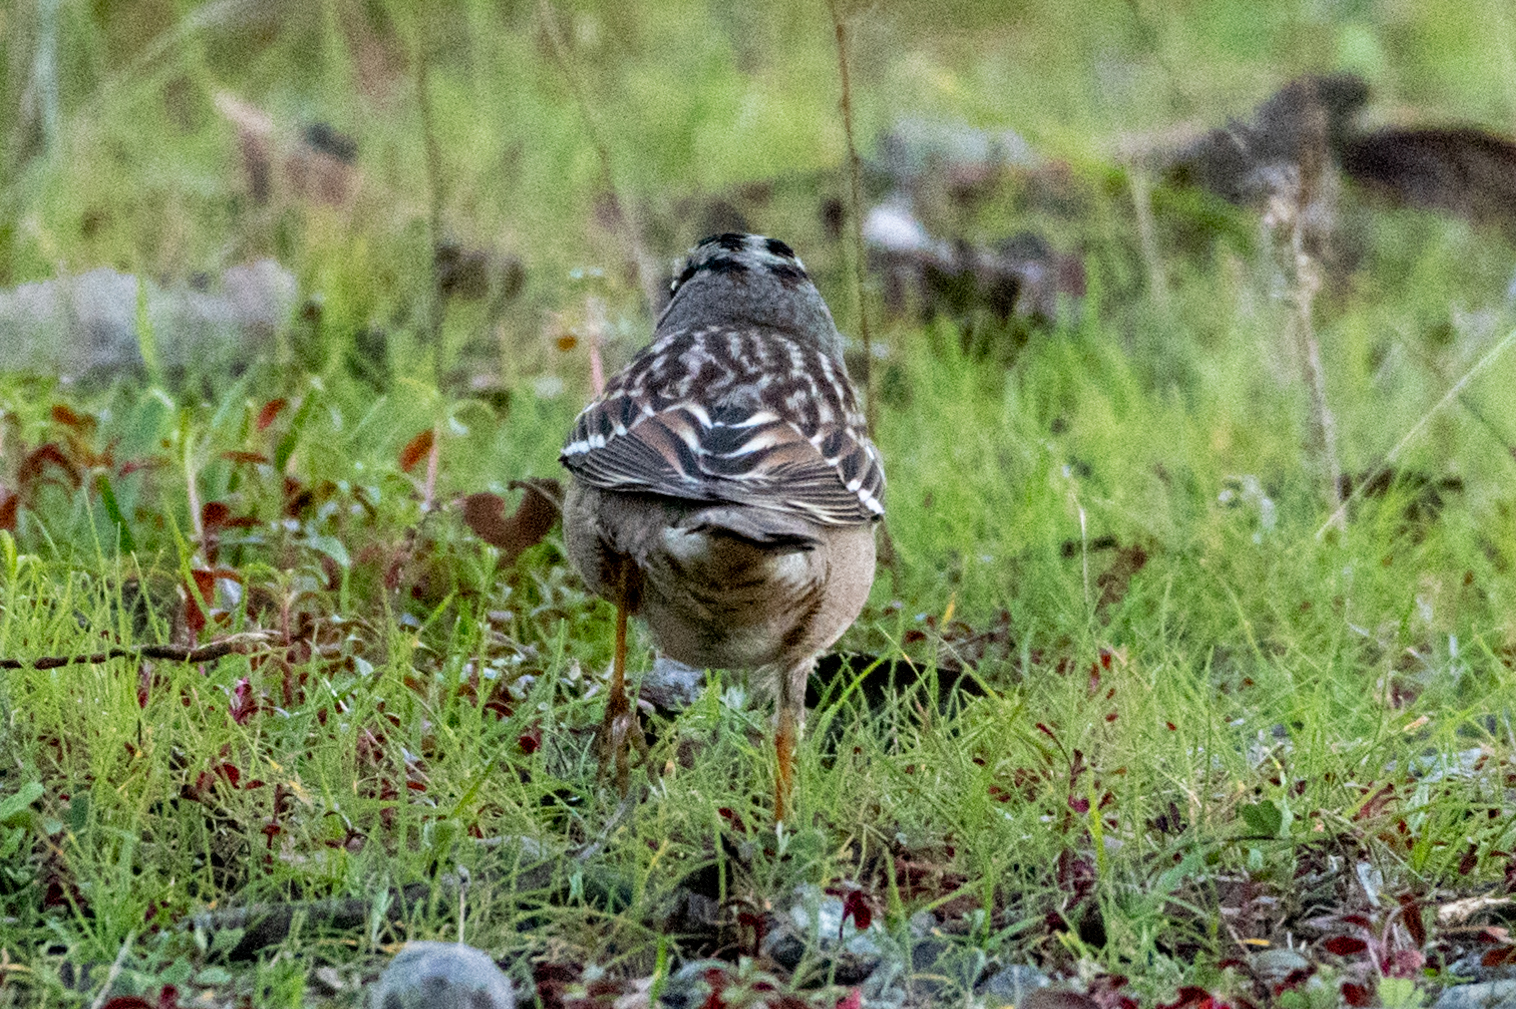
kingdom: Animalia
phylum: Chordata
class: Aves
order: Passeriformes
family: Passerellidae
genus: Zonotrichia
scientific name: Zonotrichia leucophrys
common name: White-crowned sparrow
